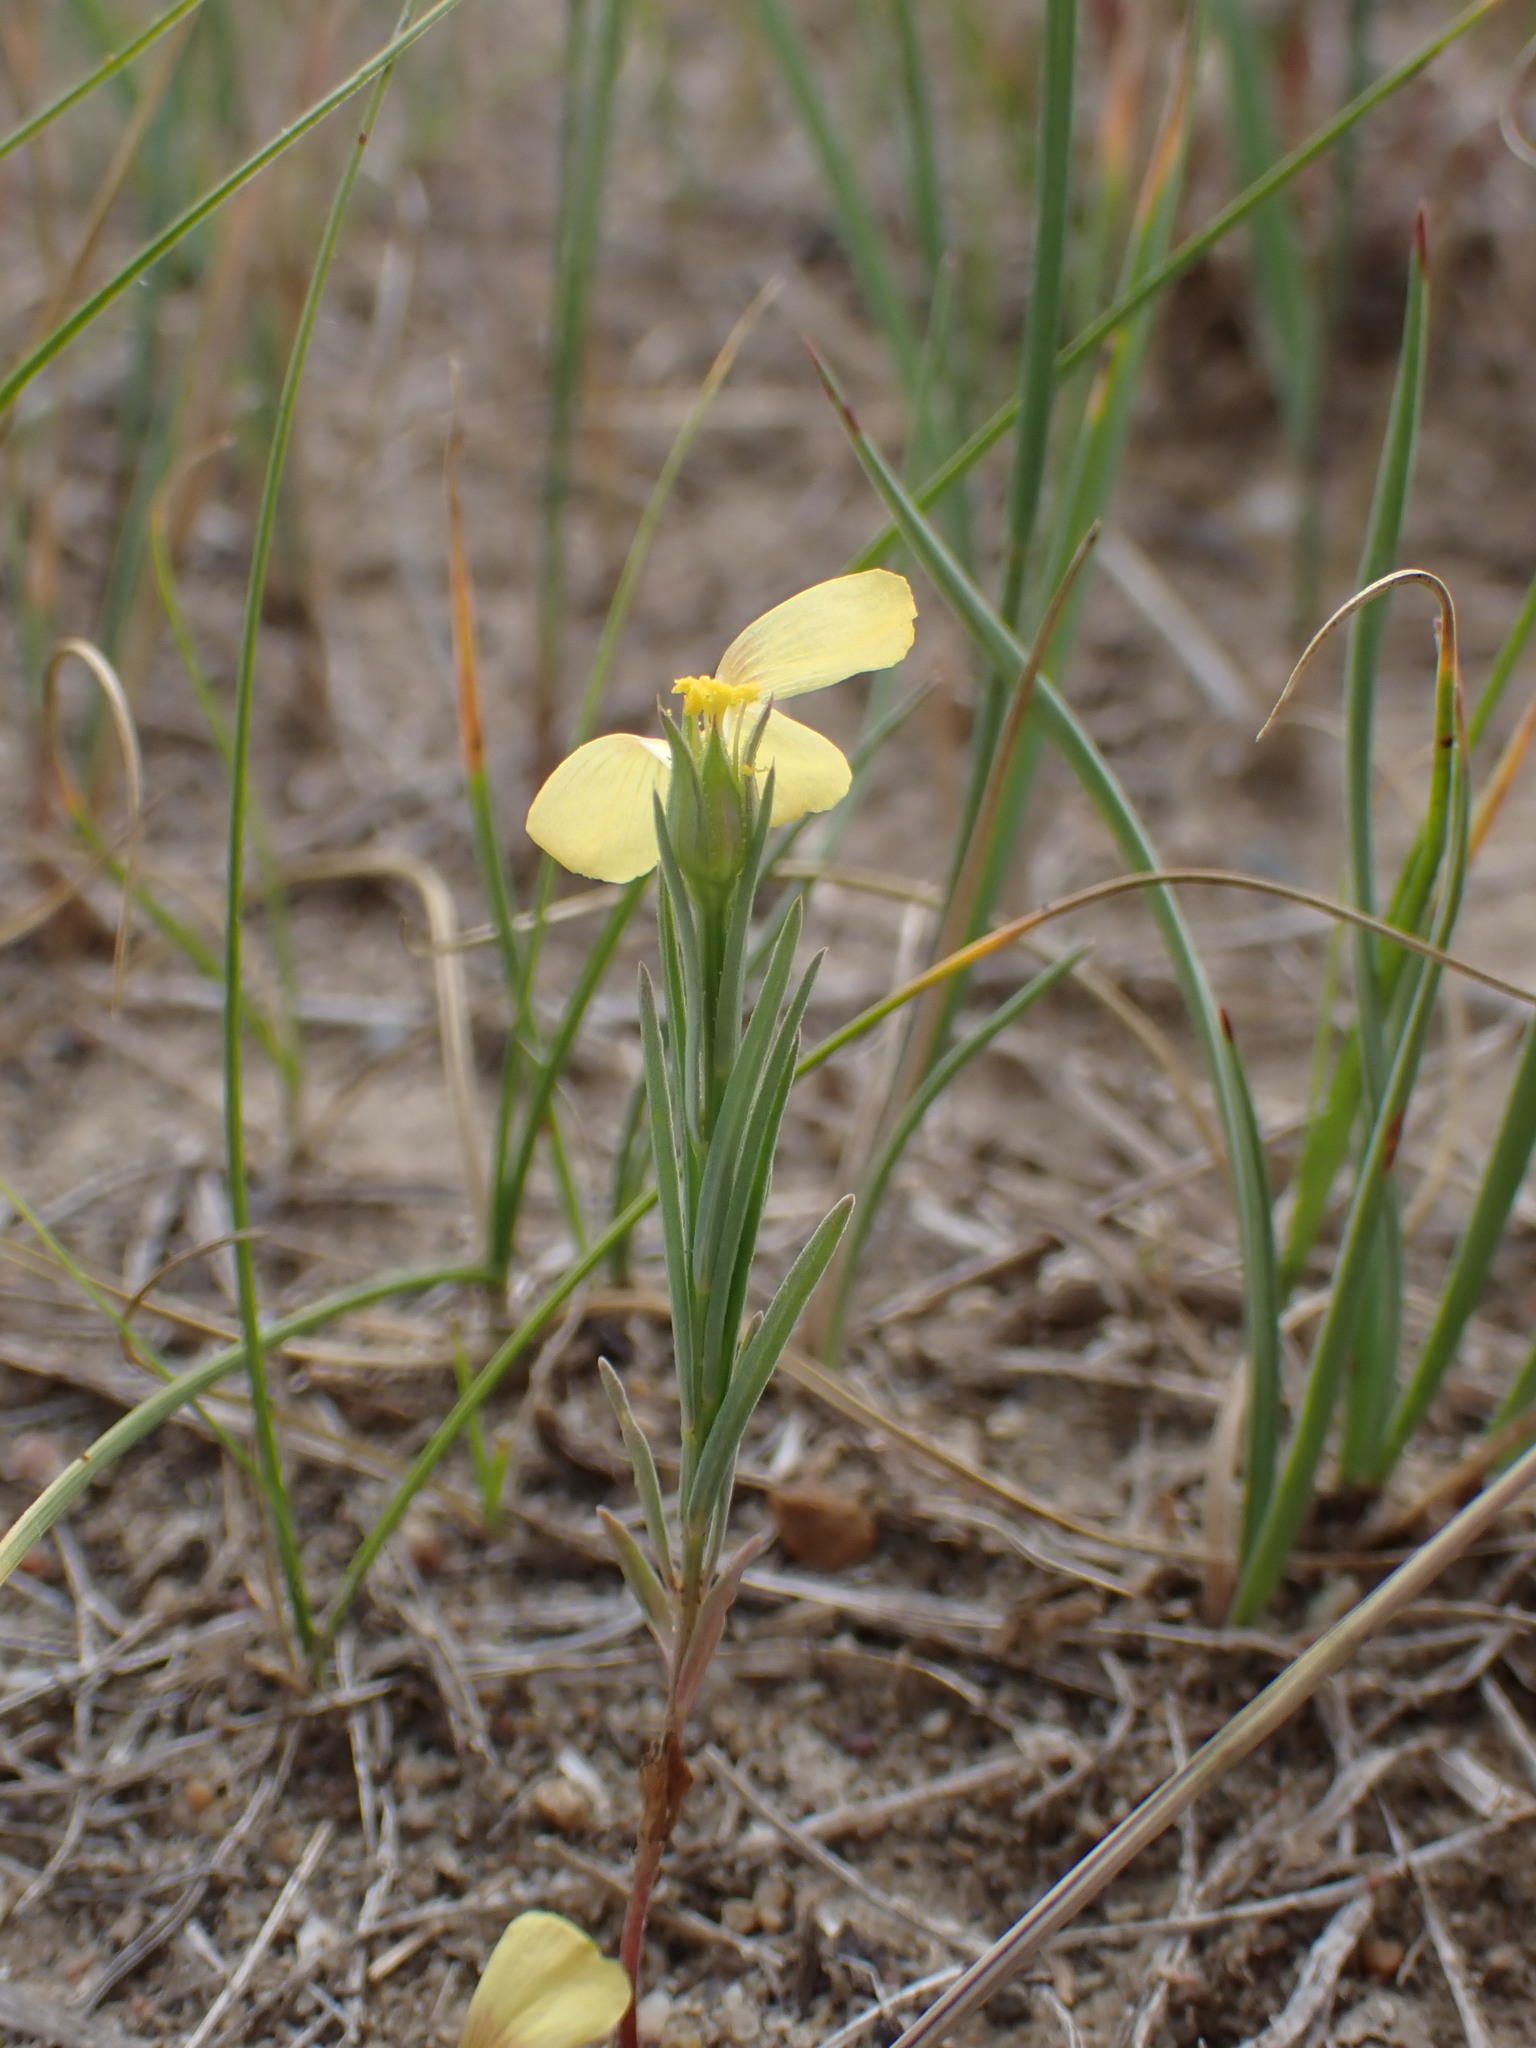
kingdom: Plantae
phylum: Tracheophyta
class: Magnoliopsida
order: Malpighiales
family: Linaceae
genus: Linum
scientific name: Linum compactum
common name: Wyoming flax
